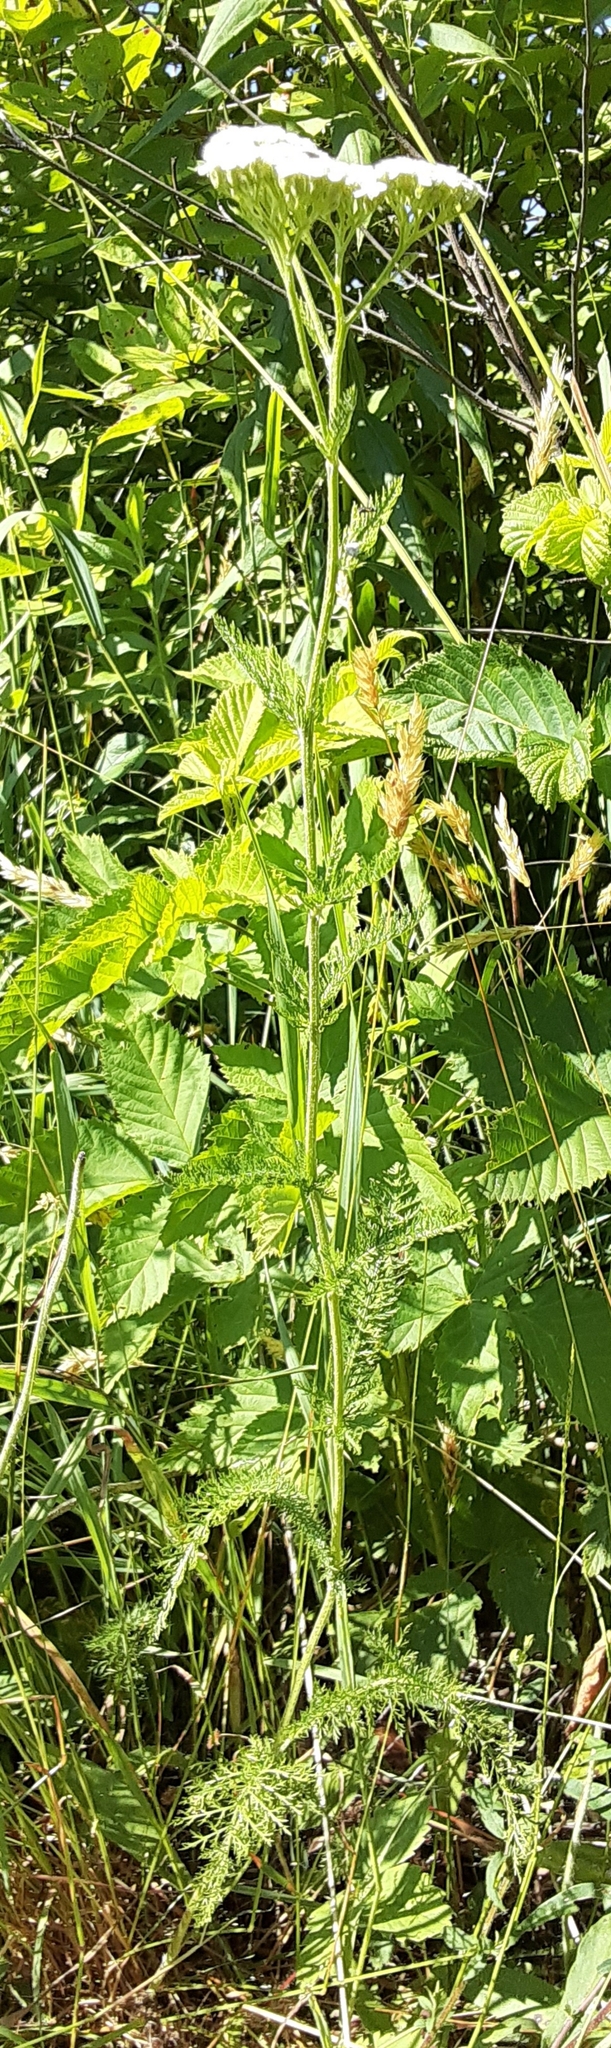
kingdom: Plantae
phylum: Tracheophyta
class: Magnoliopsida
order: Asterales
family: Asteraceae
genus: Achillea
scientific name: Achillea millefolium
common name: Yarrow
